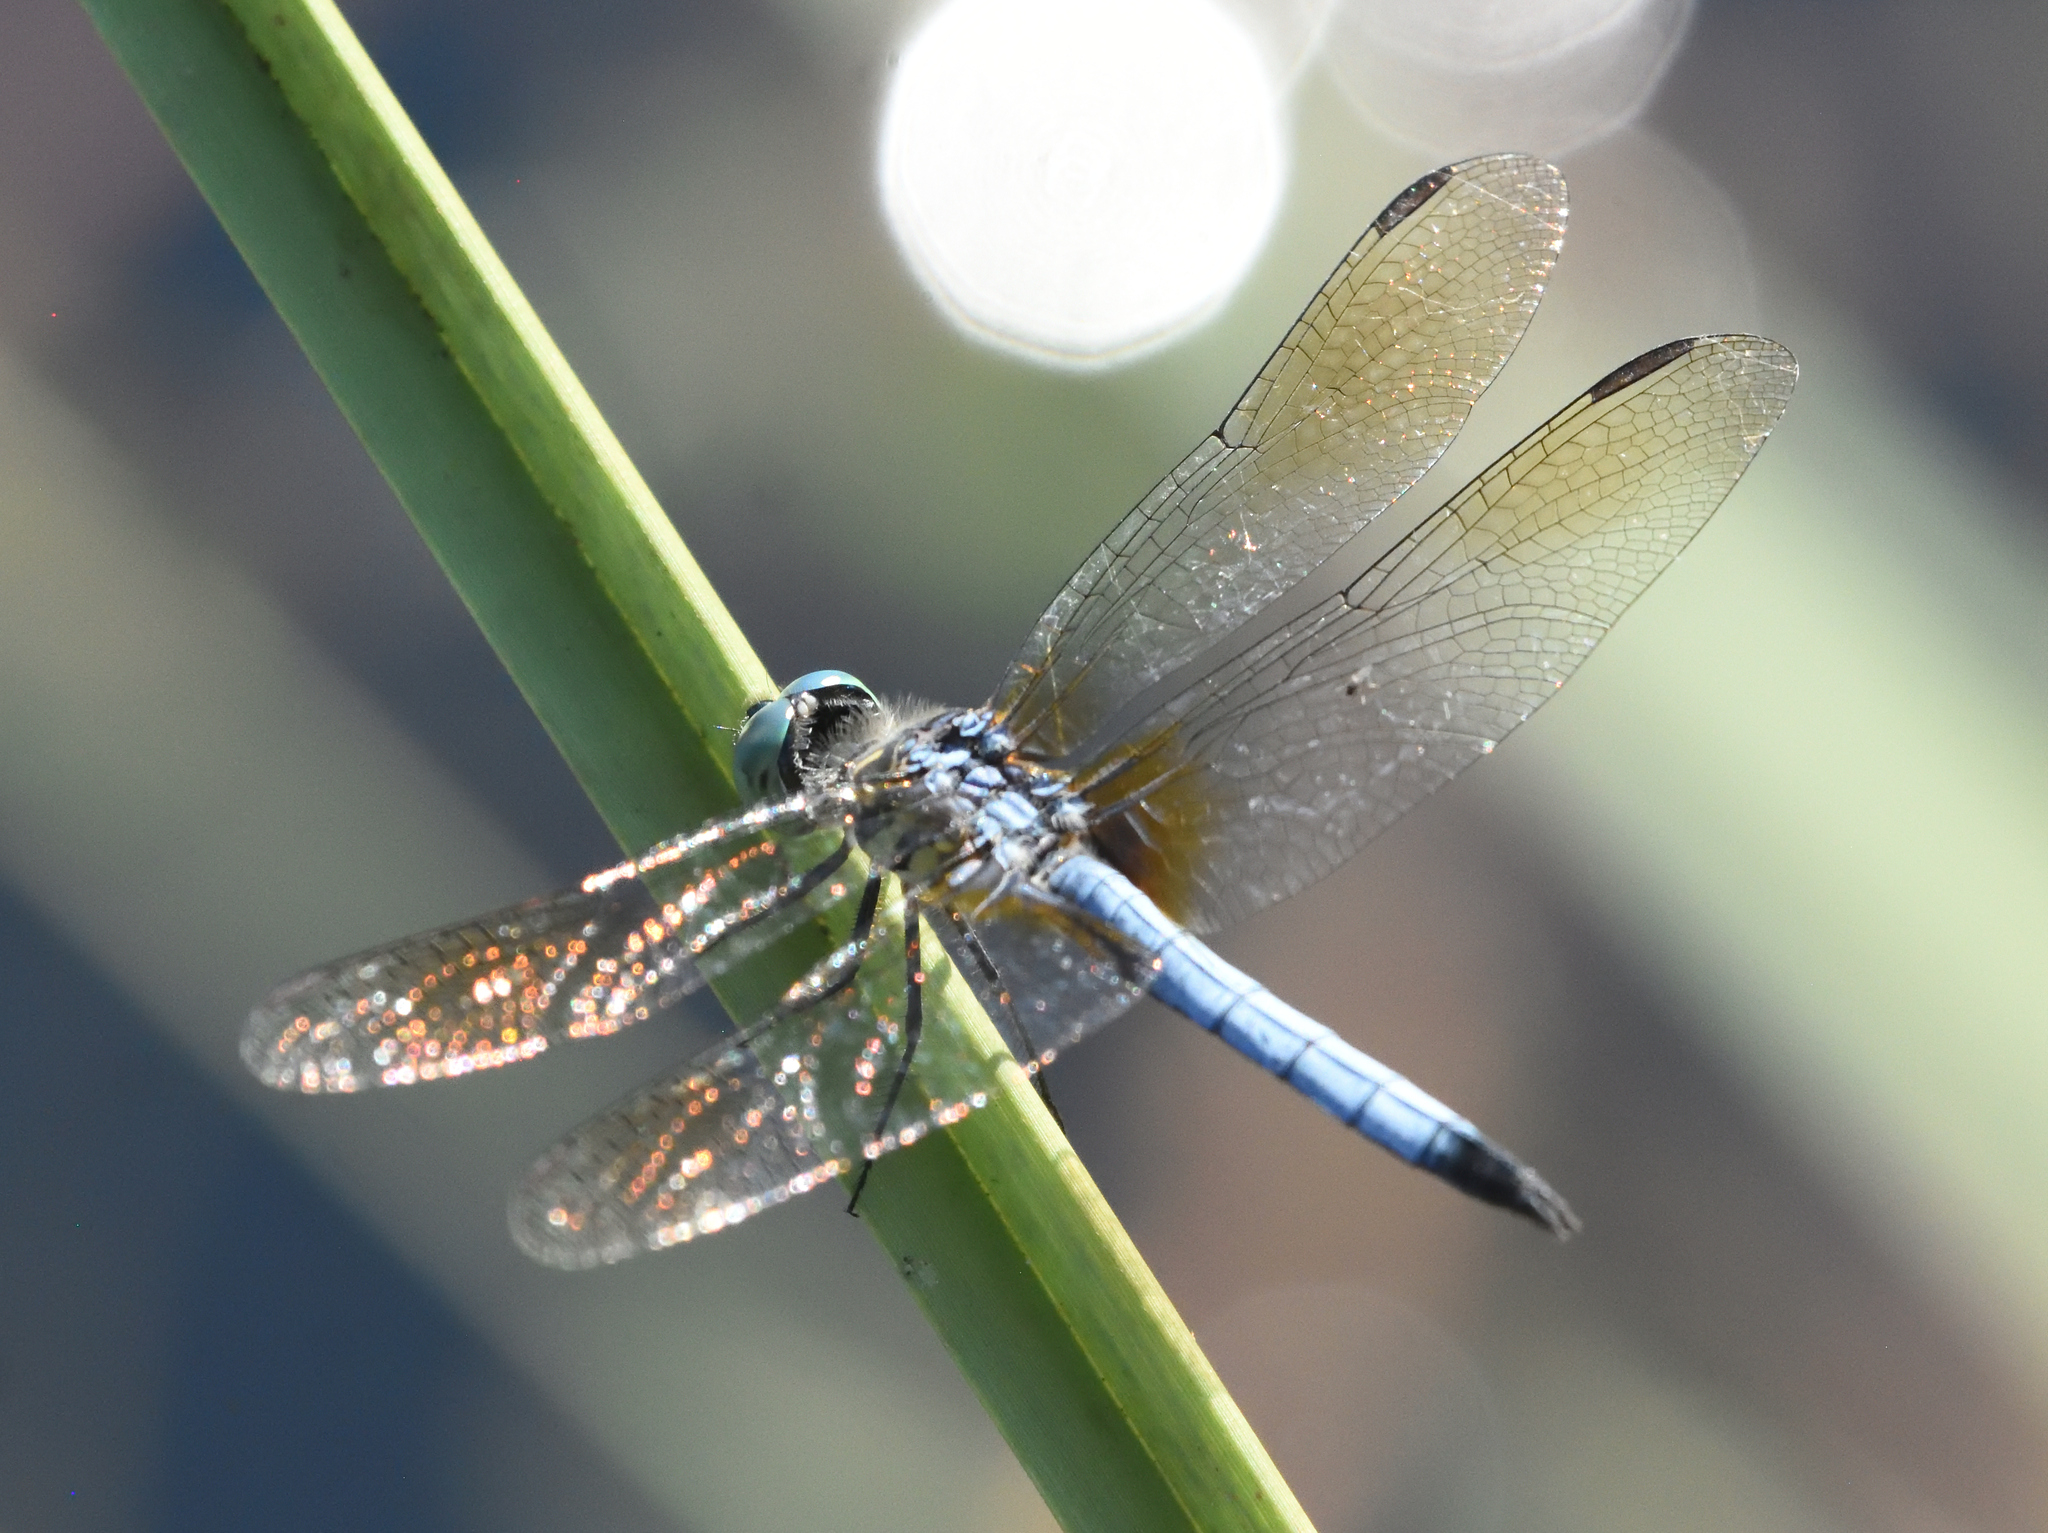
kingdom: Animalia
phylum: Arthropoda
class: Insecta
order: Odonata
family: Libellulidae
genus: Pachydiplax
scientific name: Pachydiplax longipennis
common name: Blue dasher
